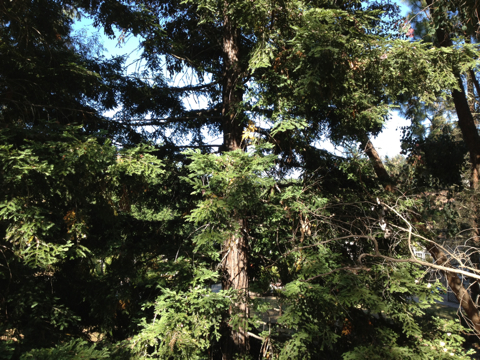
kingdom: Plantae
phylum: Tracheophyta
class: Pinopsida
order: Pinales
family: Cupressaceae
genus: Sequoia
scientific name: Sequoia sempervirens
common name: Coast redwood
